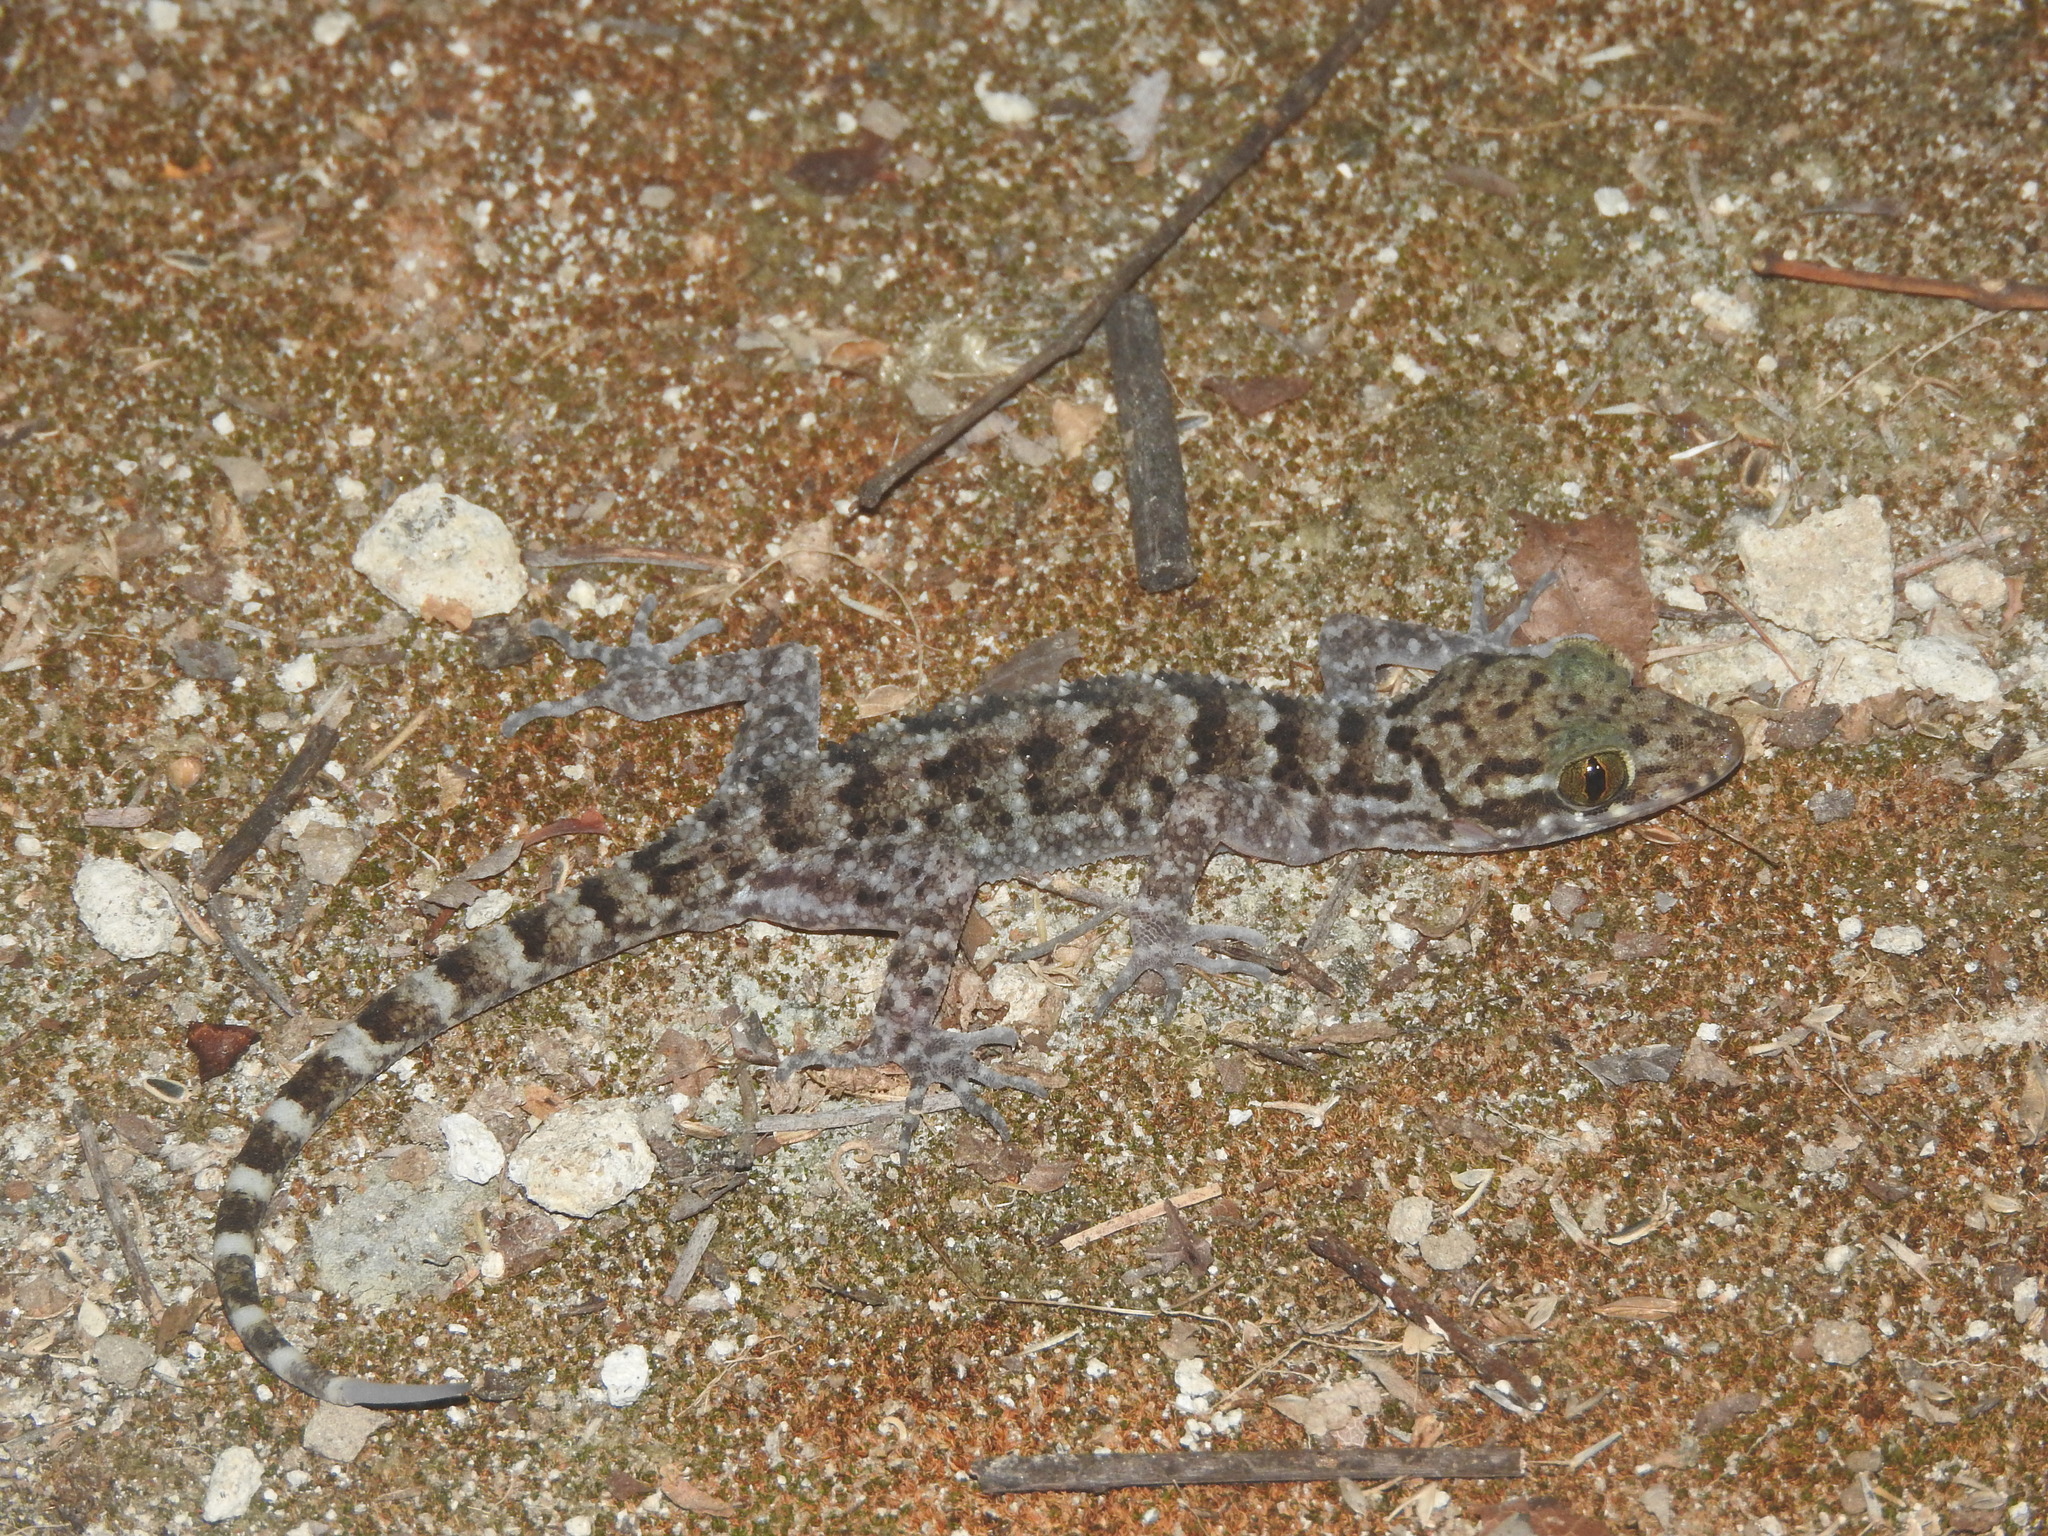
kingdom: Animalia
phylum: Chordata
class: Squamata
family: Gekkonidae
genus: Cyrtodactylus
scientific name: Cyrtodactylus darmandvillei
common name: Darmandville bow-fingered gecko
